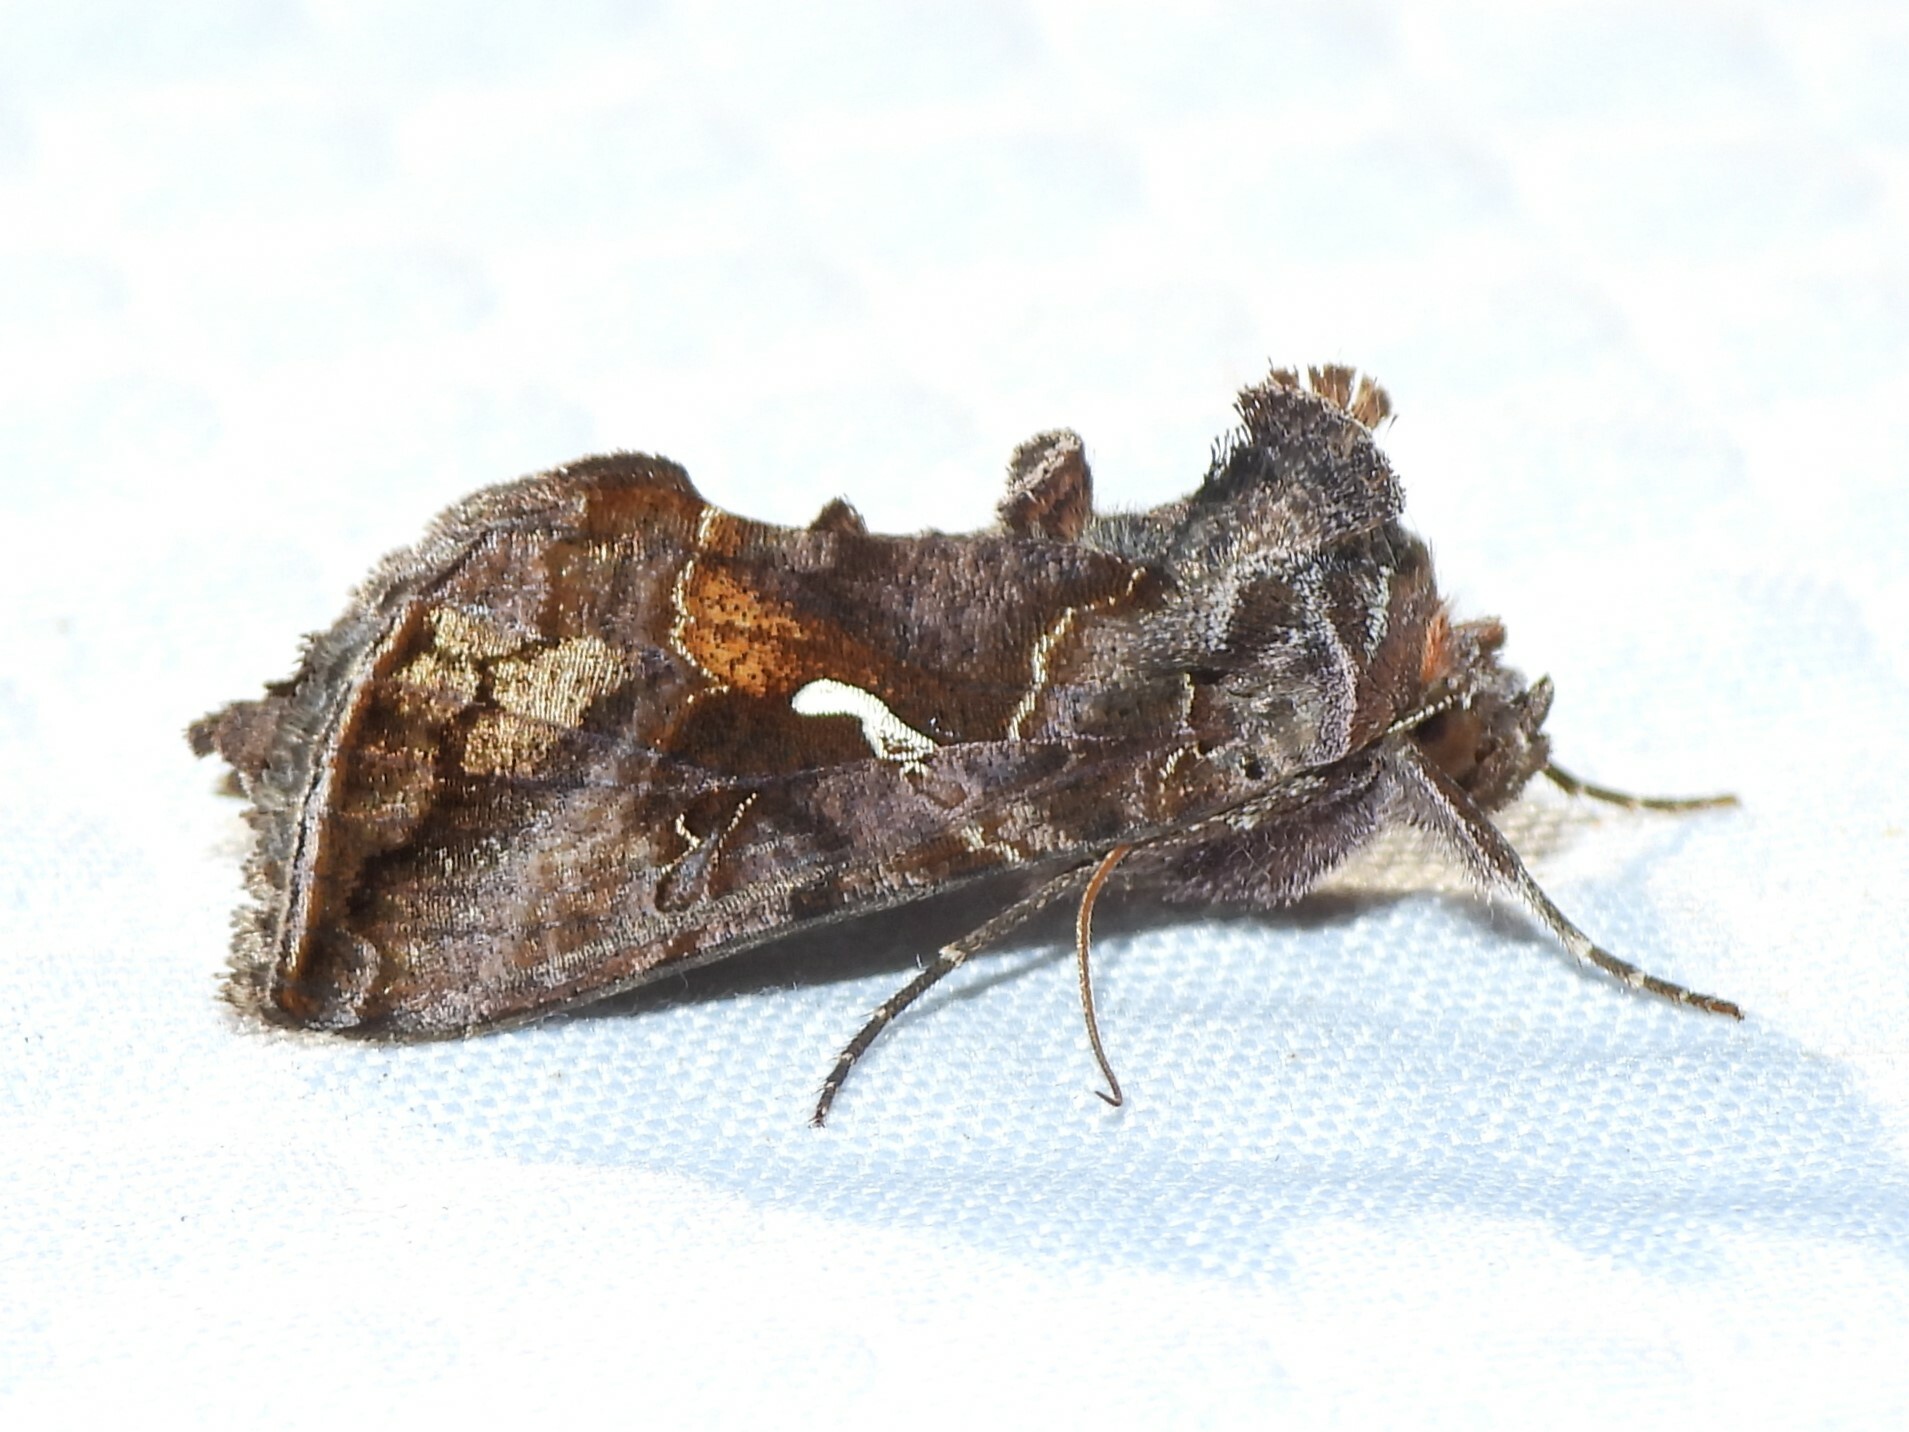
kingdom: Animalia
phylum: Arthropoda
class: Insecta
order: Lepidoptera
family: Noctuidae
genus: Autographa
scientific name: Autographa precationis
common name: Common looper moth
